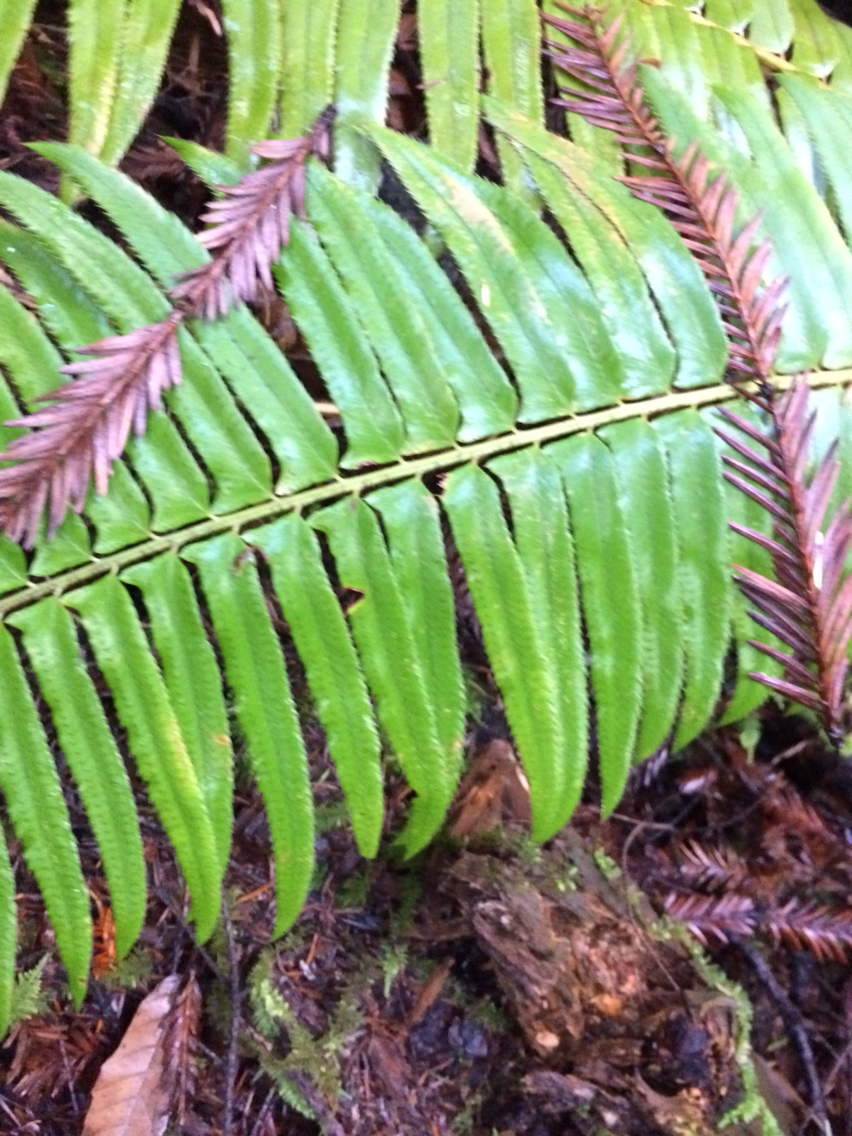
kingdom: Plantae
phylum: Tracheophyta
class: Polypodiopsida
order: Polypodiales
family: Dryopteridaceae
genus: Polystichum
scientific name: Polystichum munitum
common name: Western sword-fern
